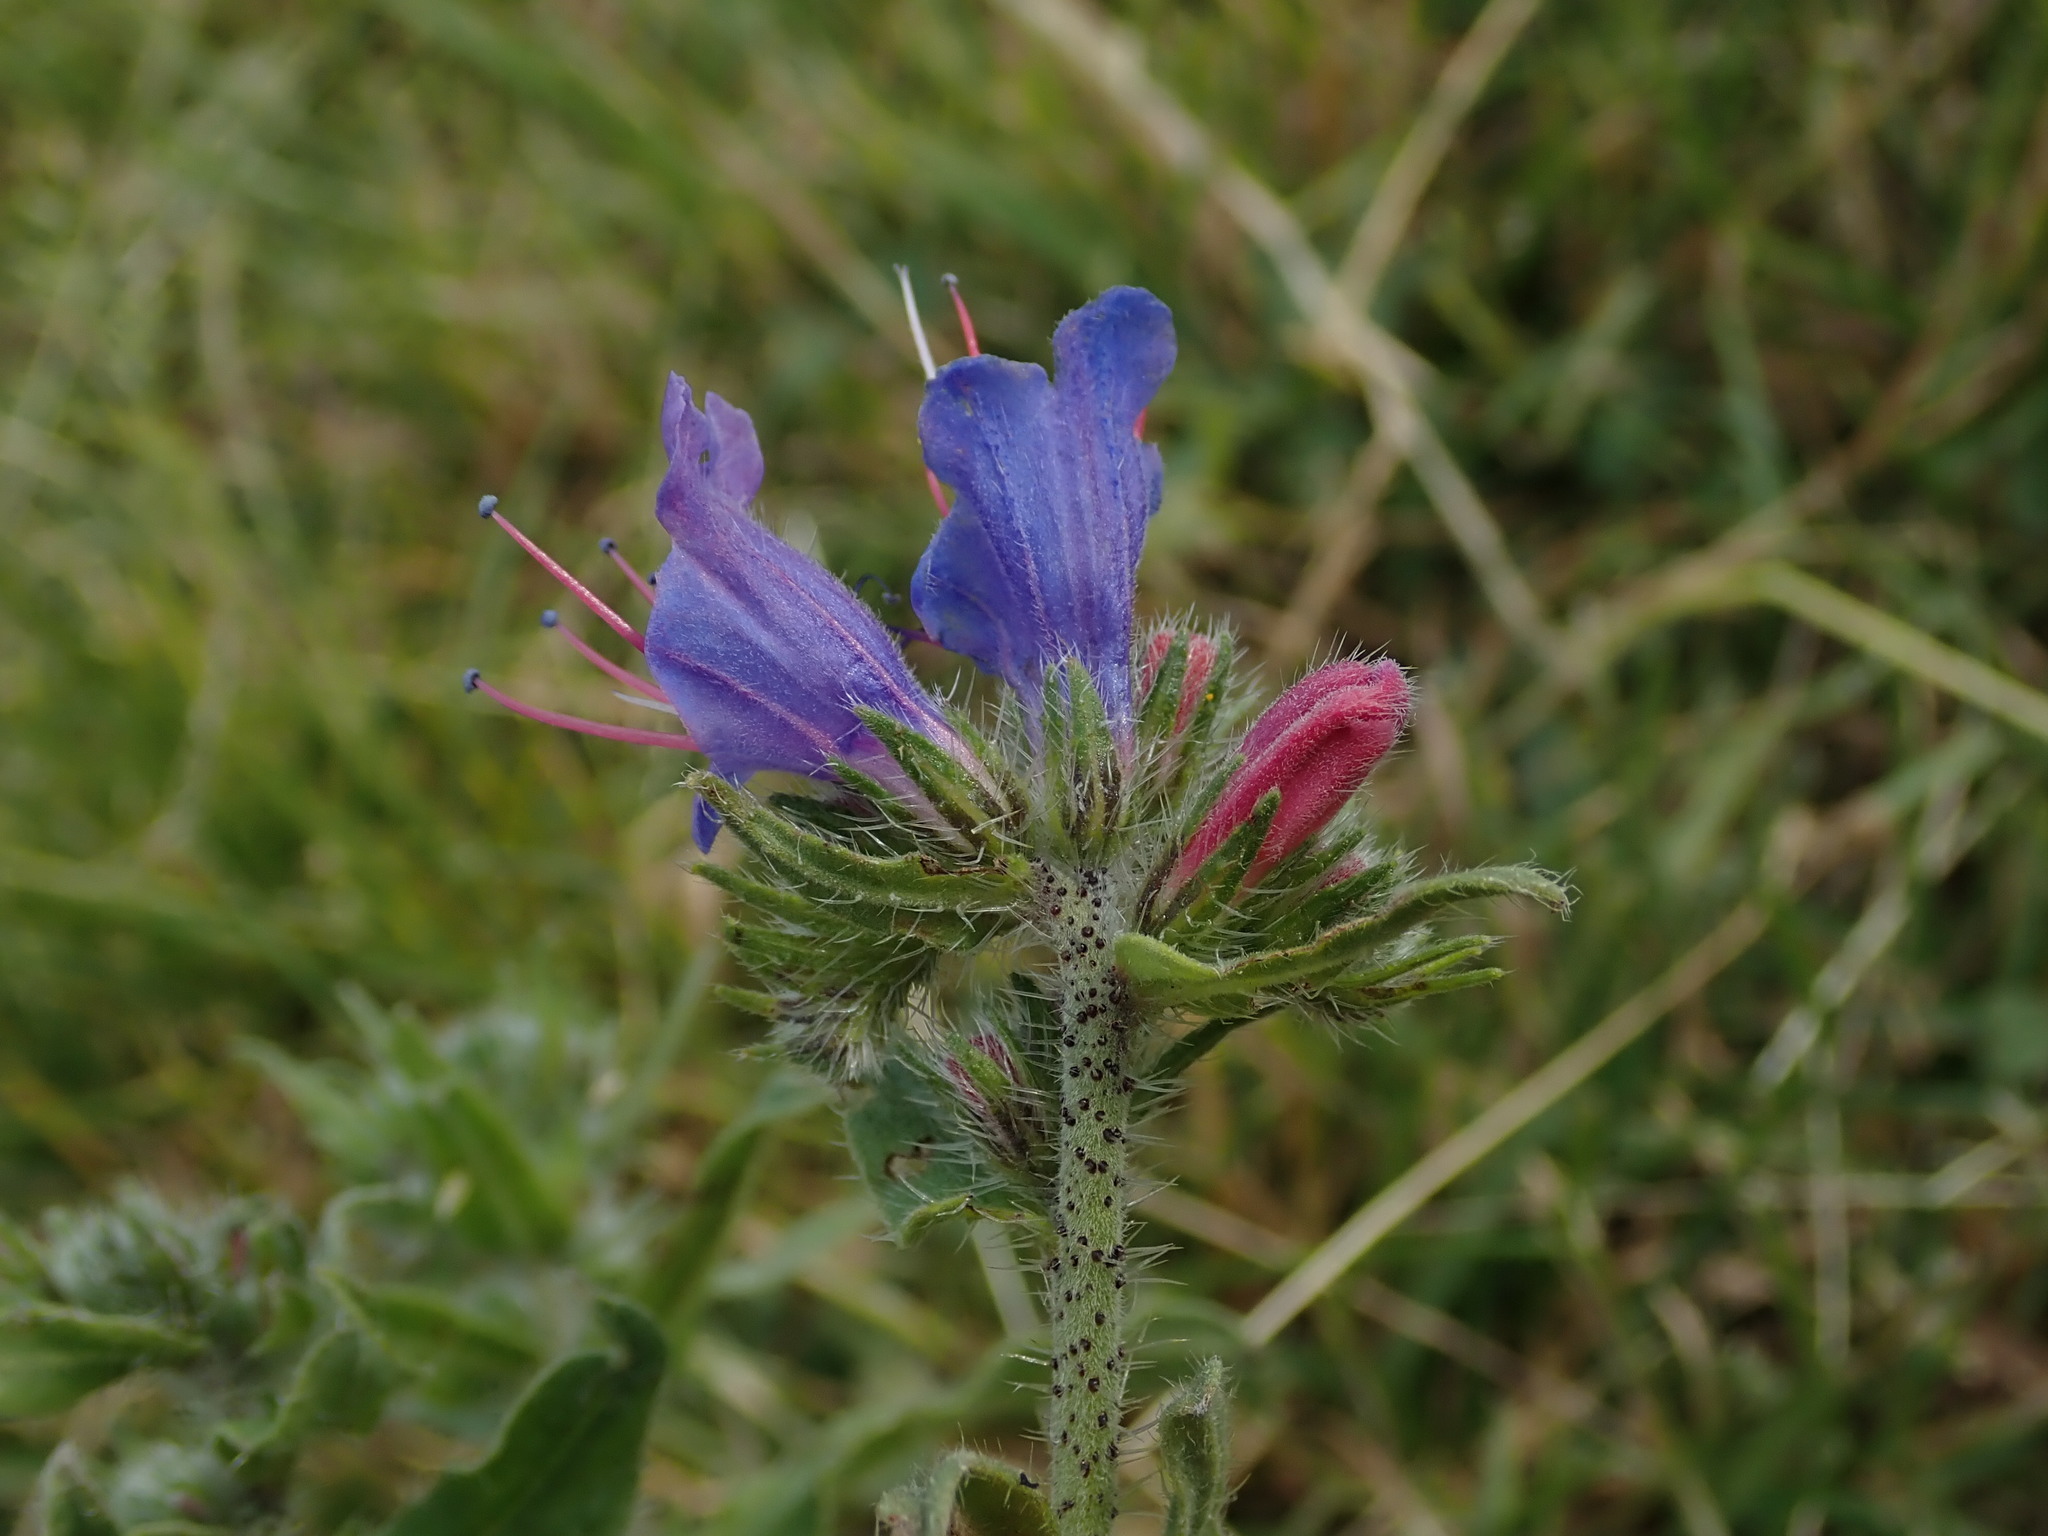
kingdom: Plantae
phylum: Tracheophyta
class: Magnoliopsida
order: Boraginales
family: Boraginaceae
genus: Echium
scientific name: Echium vulgare
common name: Common viper's bugloss
